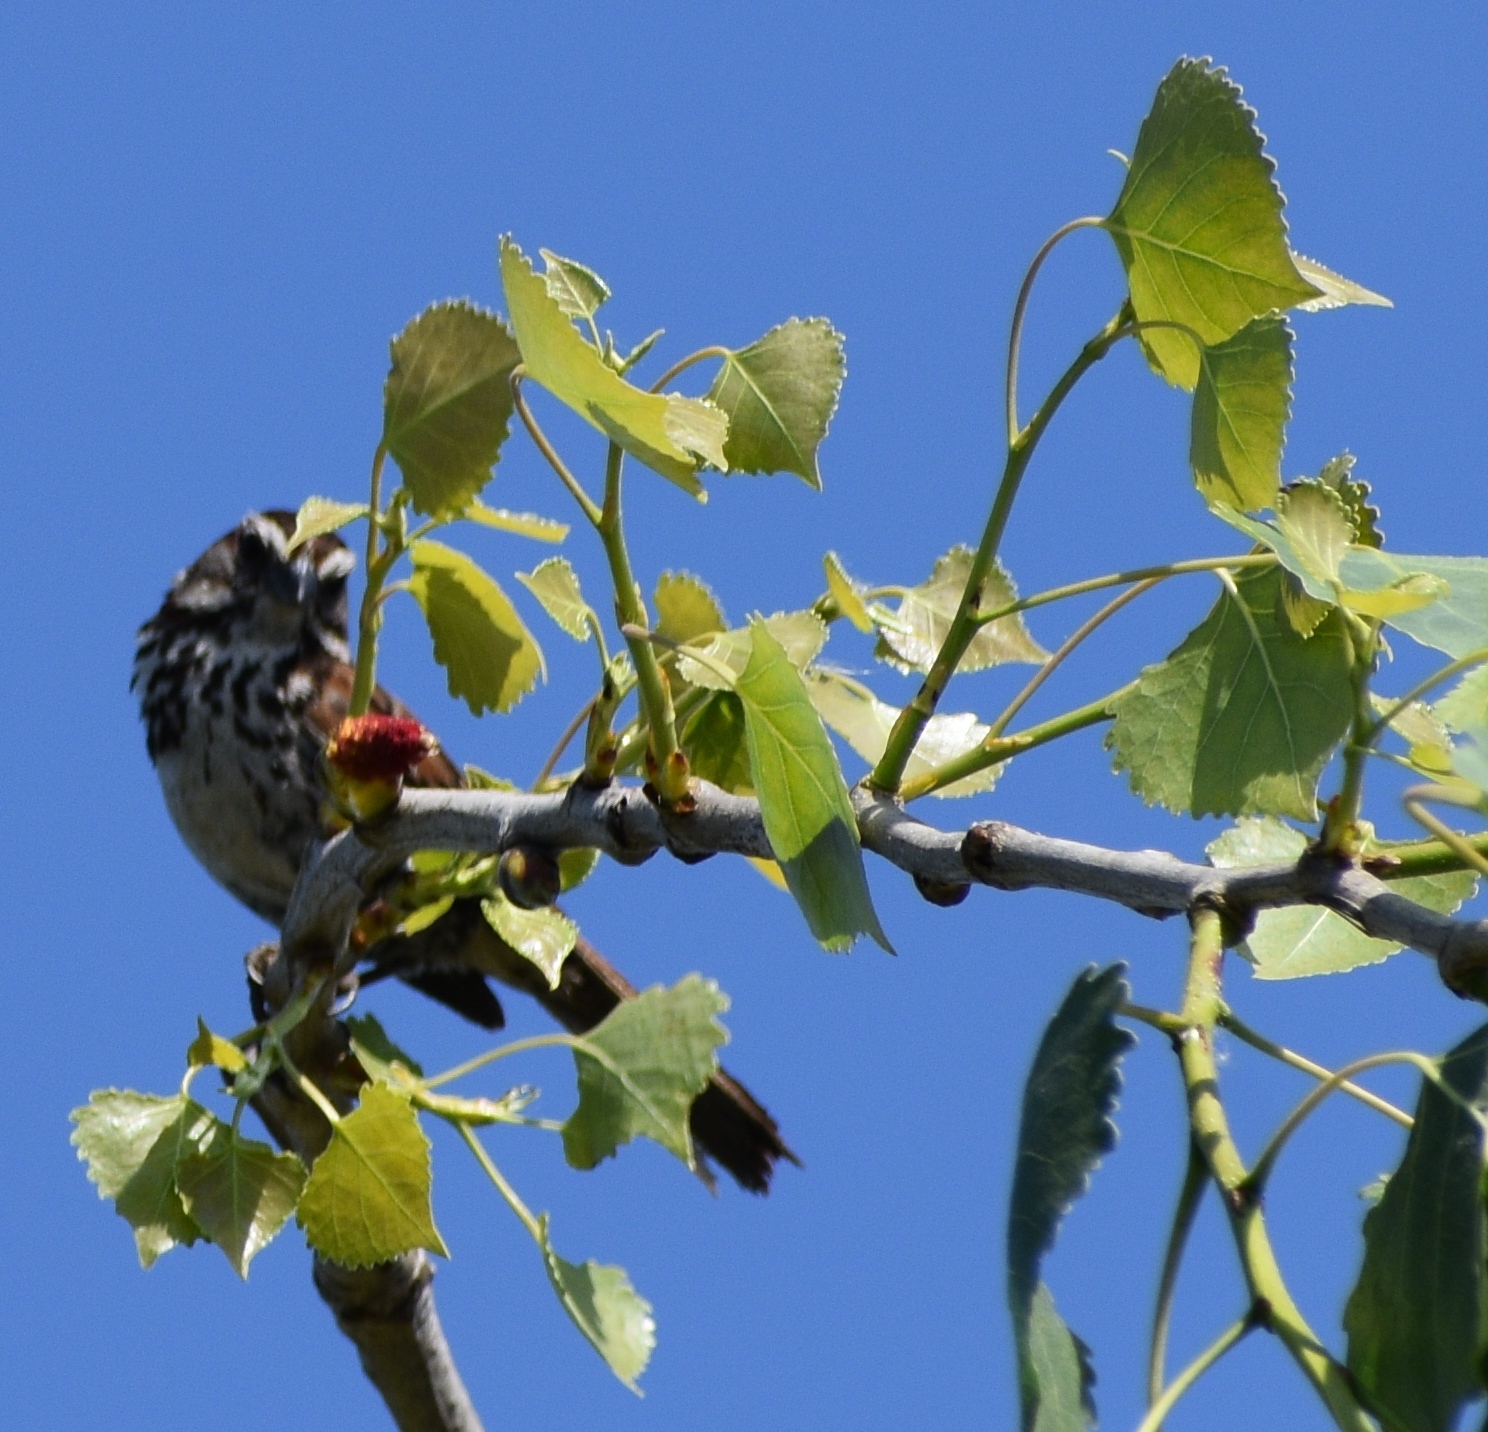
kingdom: Animalia
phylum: Chordata
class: Aves
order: Passeriformes
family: Passerellidae
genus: Melospiza
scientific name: Melospiza melodia
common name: Song sparrow
